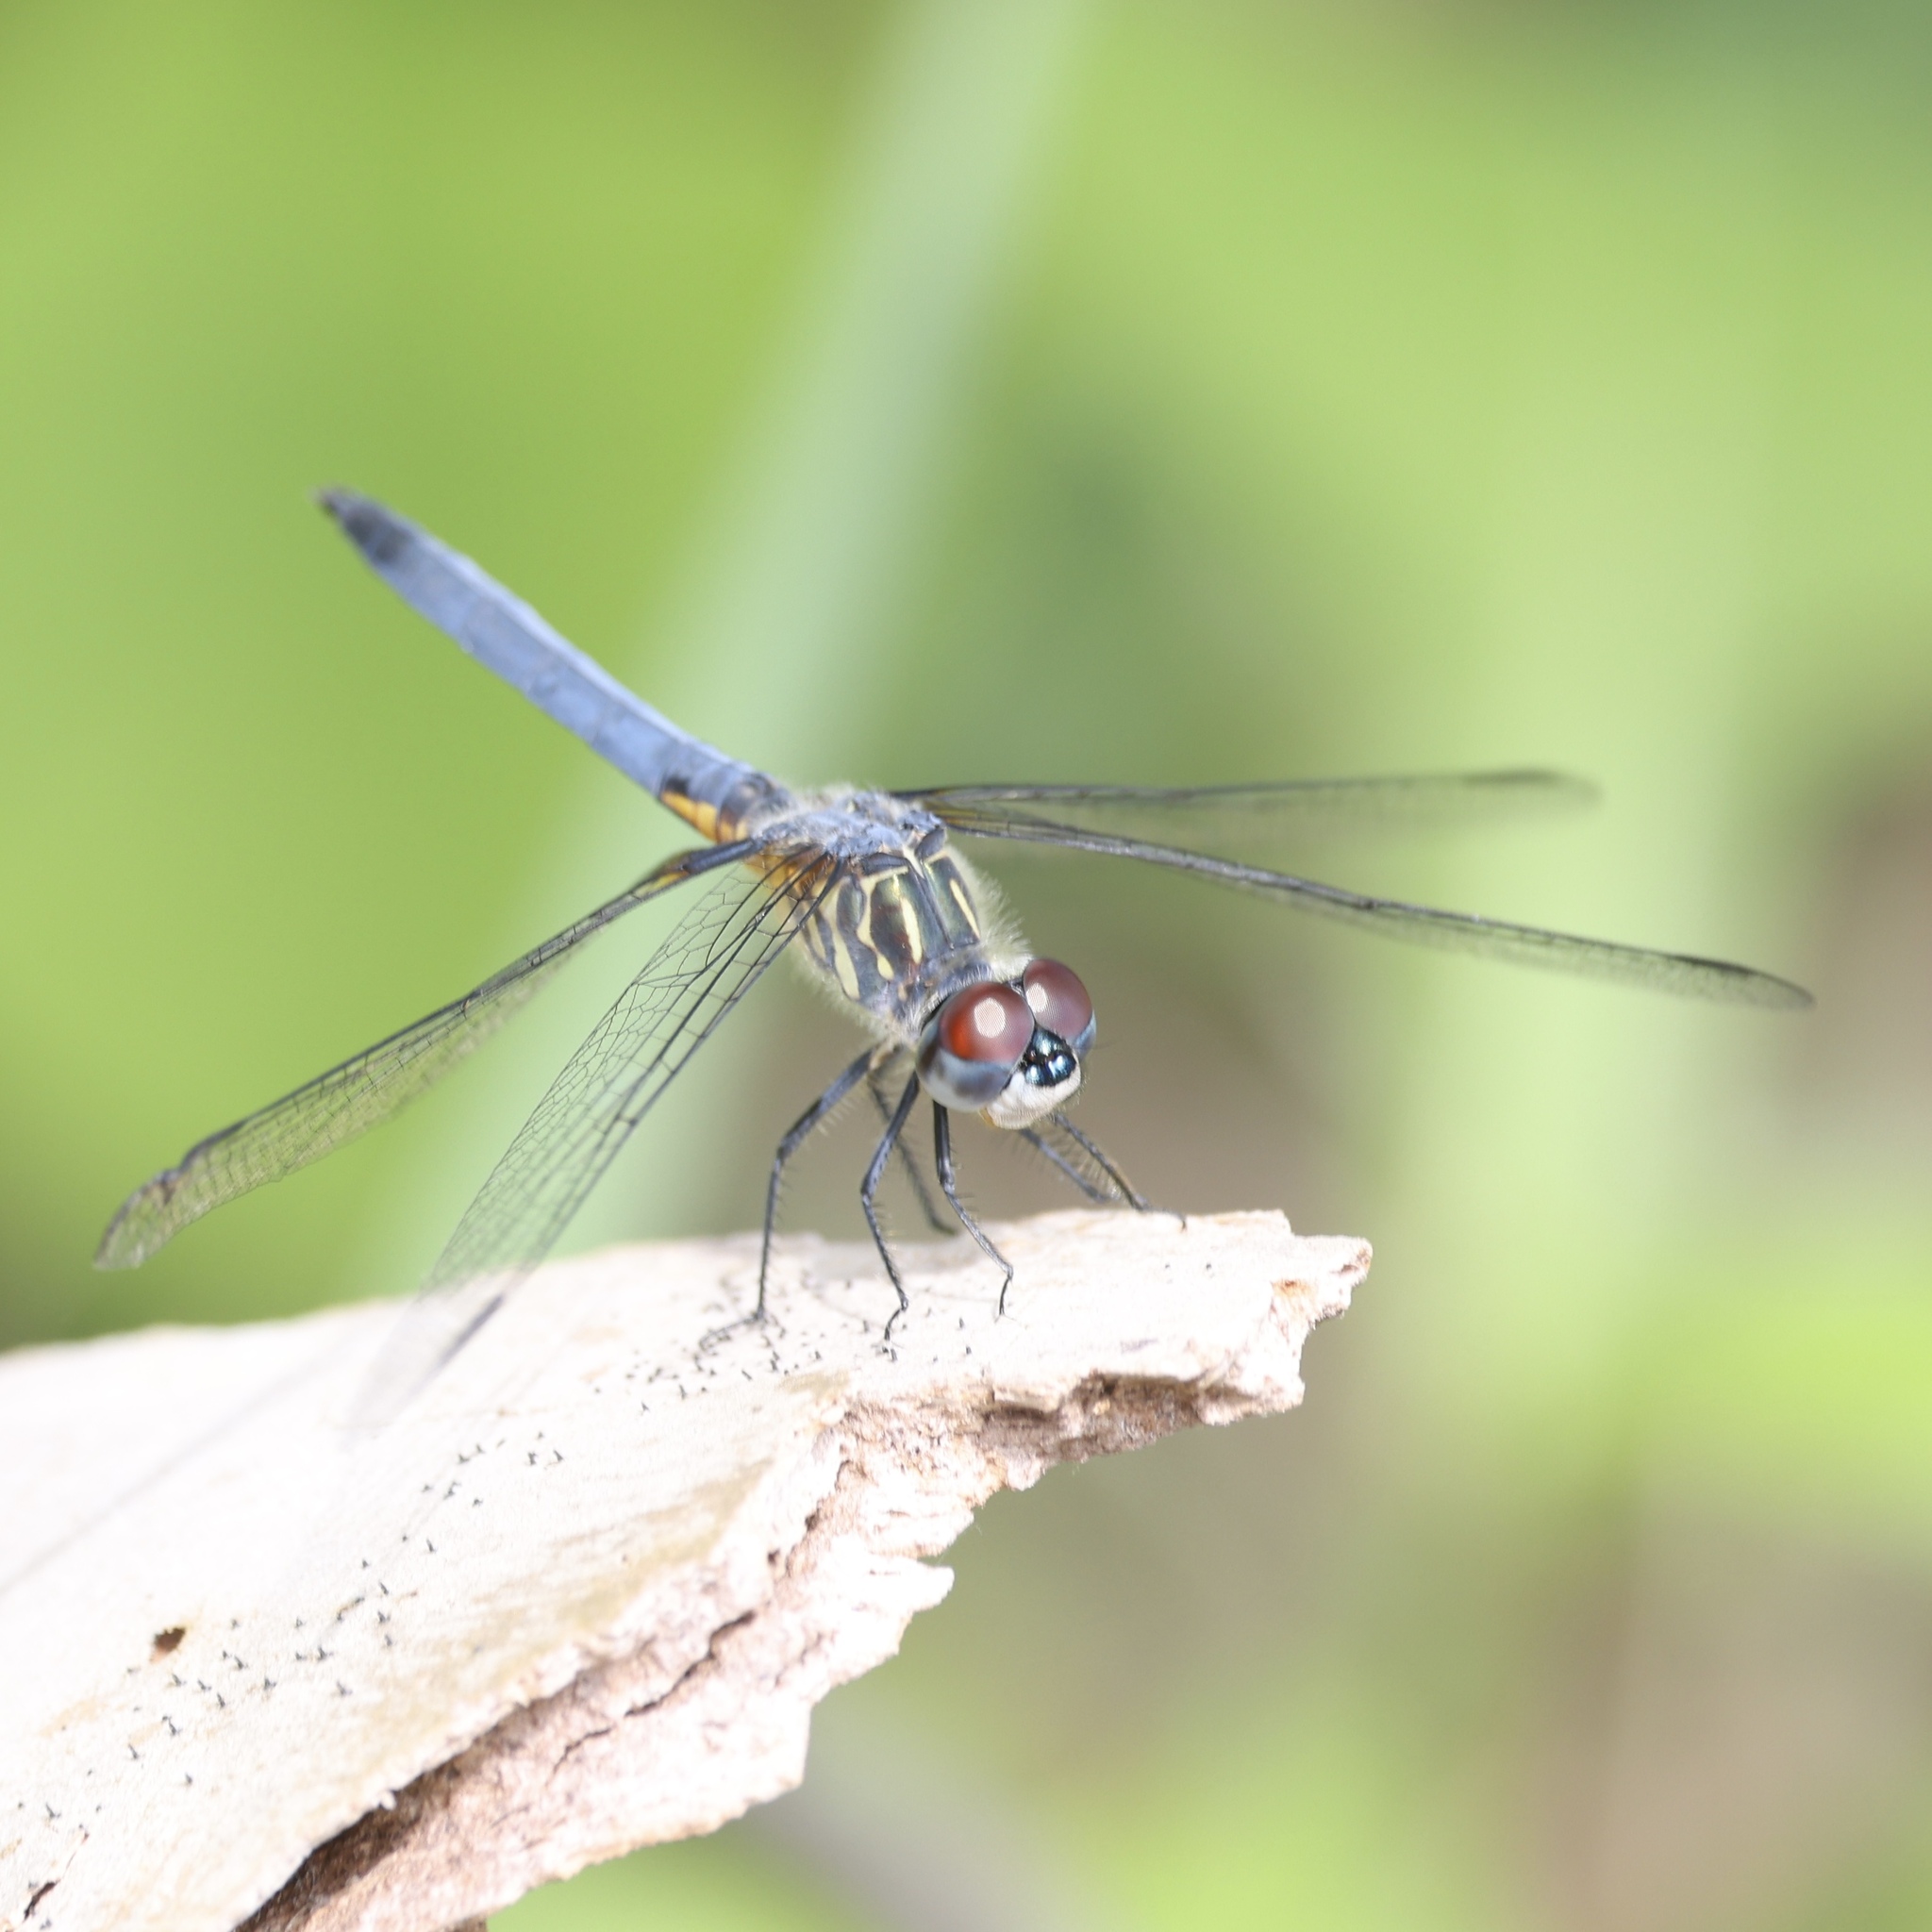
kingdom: Animalia
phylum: Arthropoda
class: Insecta
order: Odonata
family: Libellulidae
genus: Pachydiplax
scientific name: Pachydiplax longipennis
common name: Blue dasher
